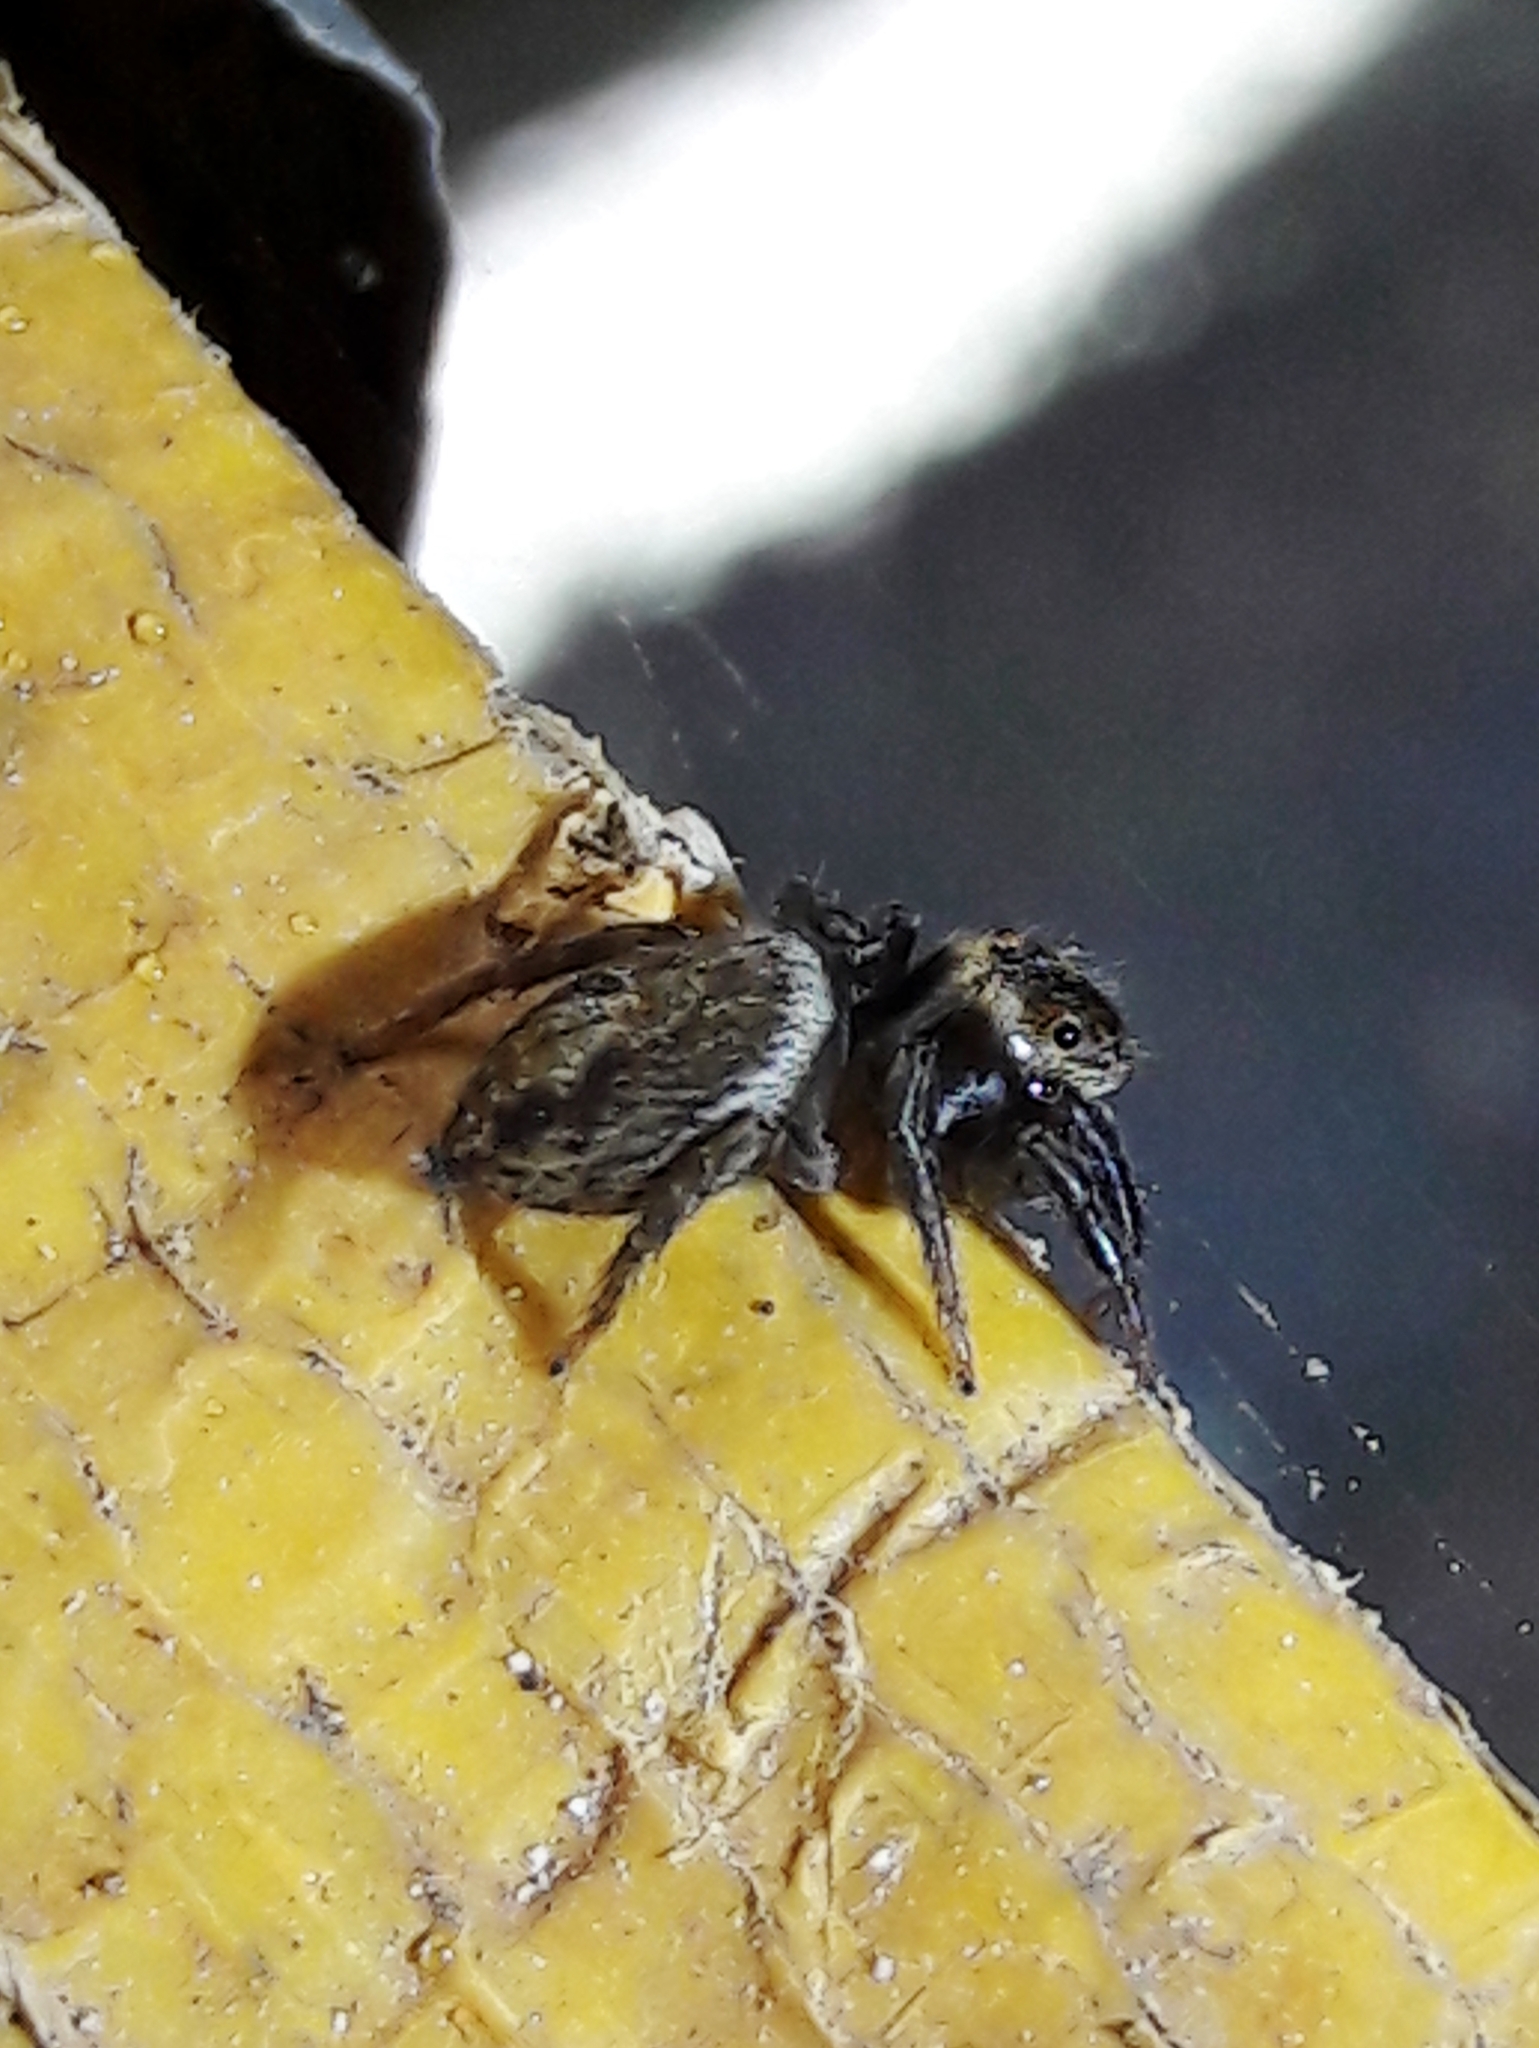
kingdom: Animalia
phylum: Arthropoda
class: Arachnida
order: Araneae
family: Salticidae
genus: Hasarius
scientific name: Hasarius adansoni
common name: Jumping spider
